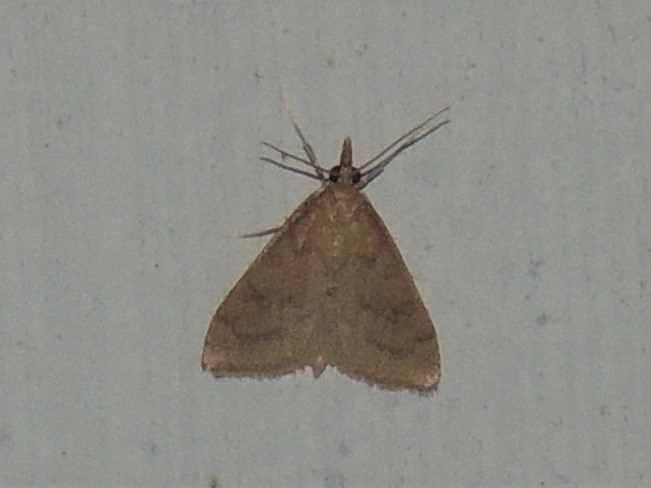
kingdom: Animalia
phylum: Arthropoda
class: Insecta
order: Lepidoptera
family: Crambidae
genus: Udea
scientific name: Udea rubigalis
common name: Celery leaftier moth
